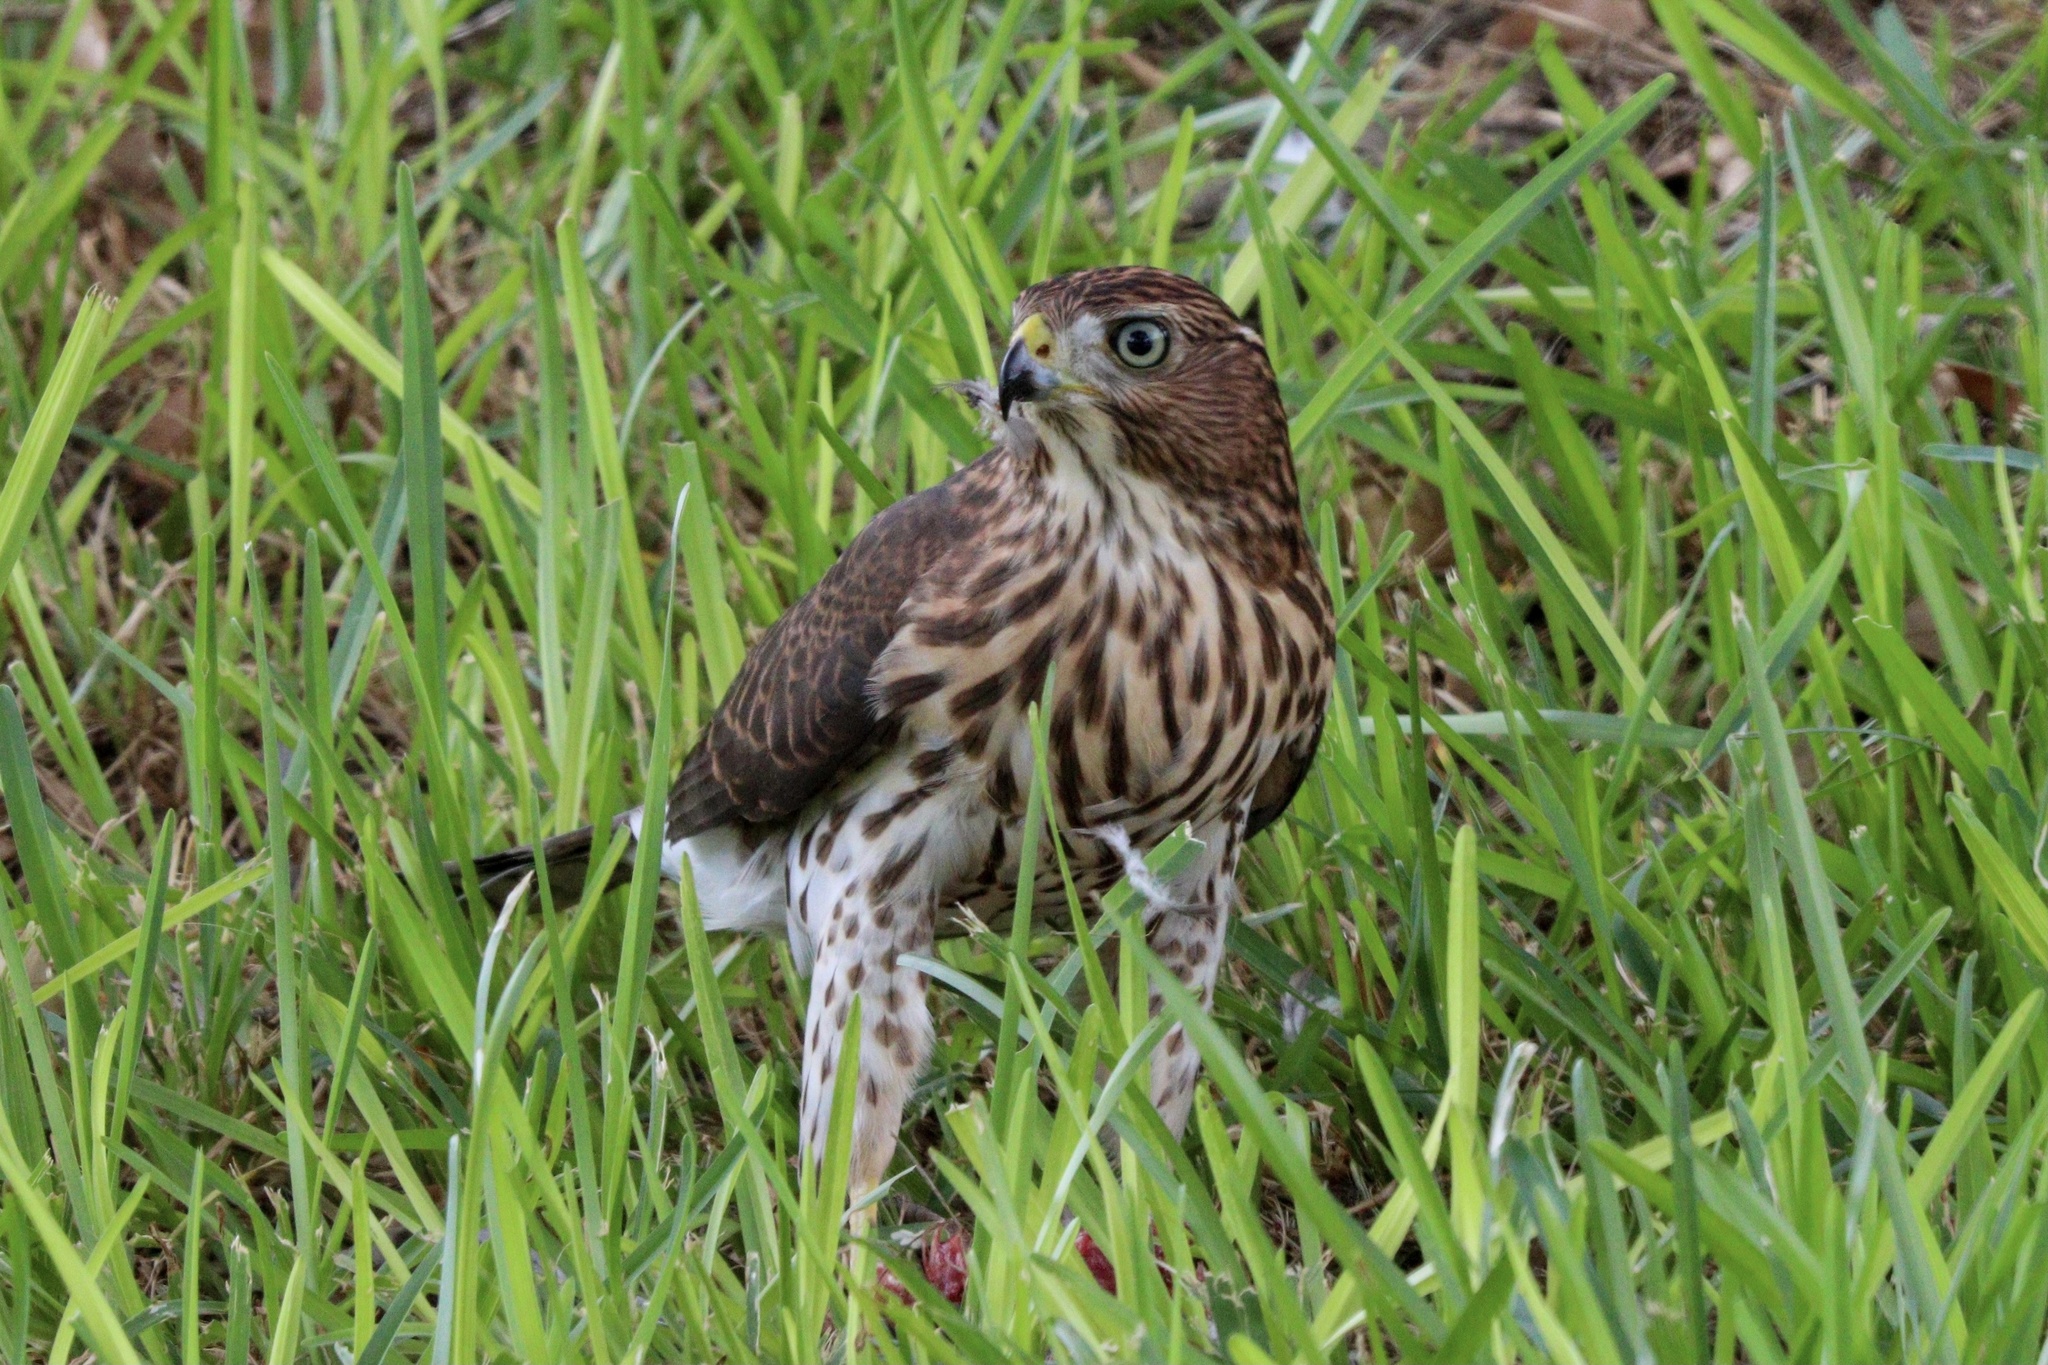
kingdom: Animalia
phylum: Chordata
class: Aves
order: Accipitriformes
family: Accipitridae
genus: Accipiter
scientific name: Accipiter cooperii
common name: Cooper's hawk
